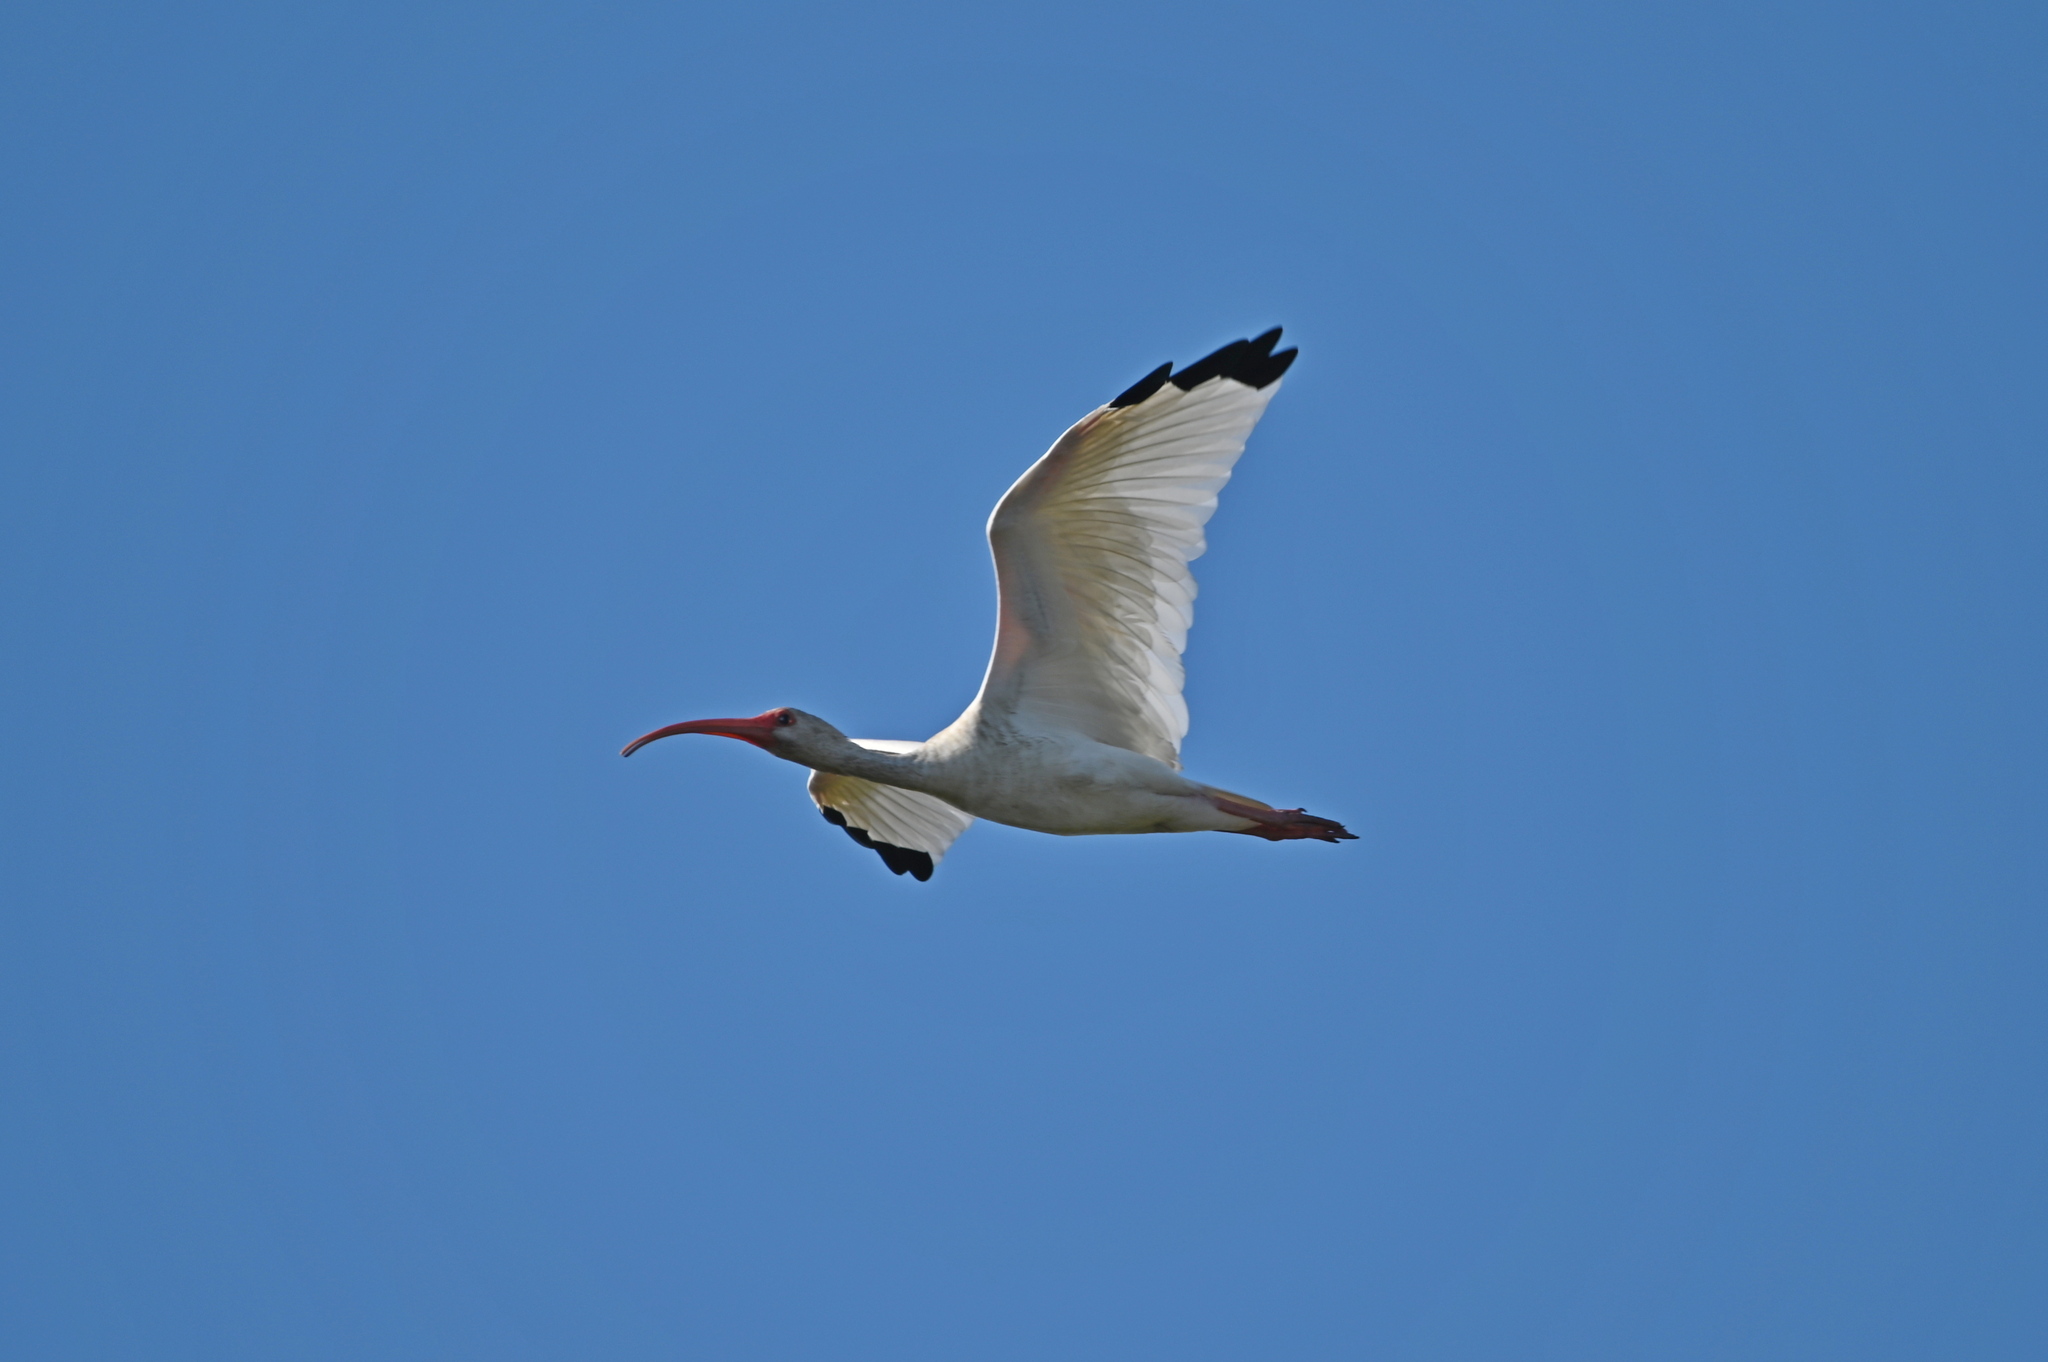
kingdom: Animalia
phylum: Chordata
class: Aves
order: Pelecaniformes
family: Threskiornithidae
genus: Eudocimus
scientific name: Eudocimus albus
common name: White ibis
